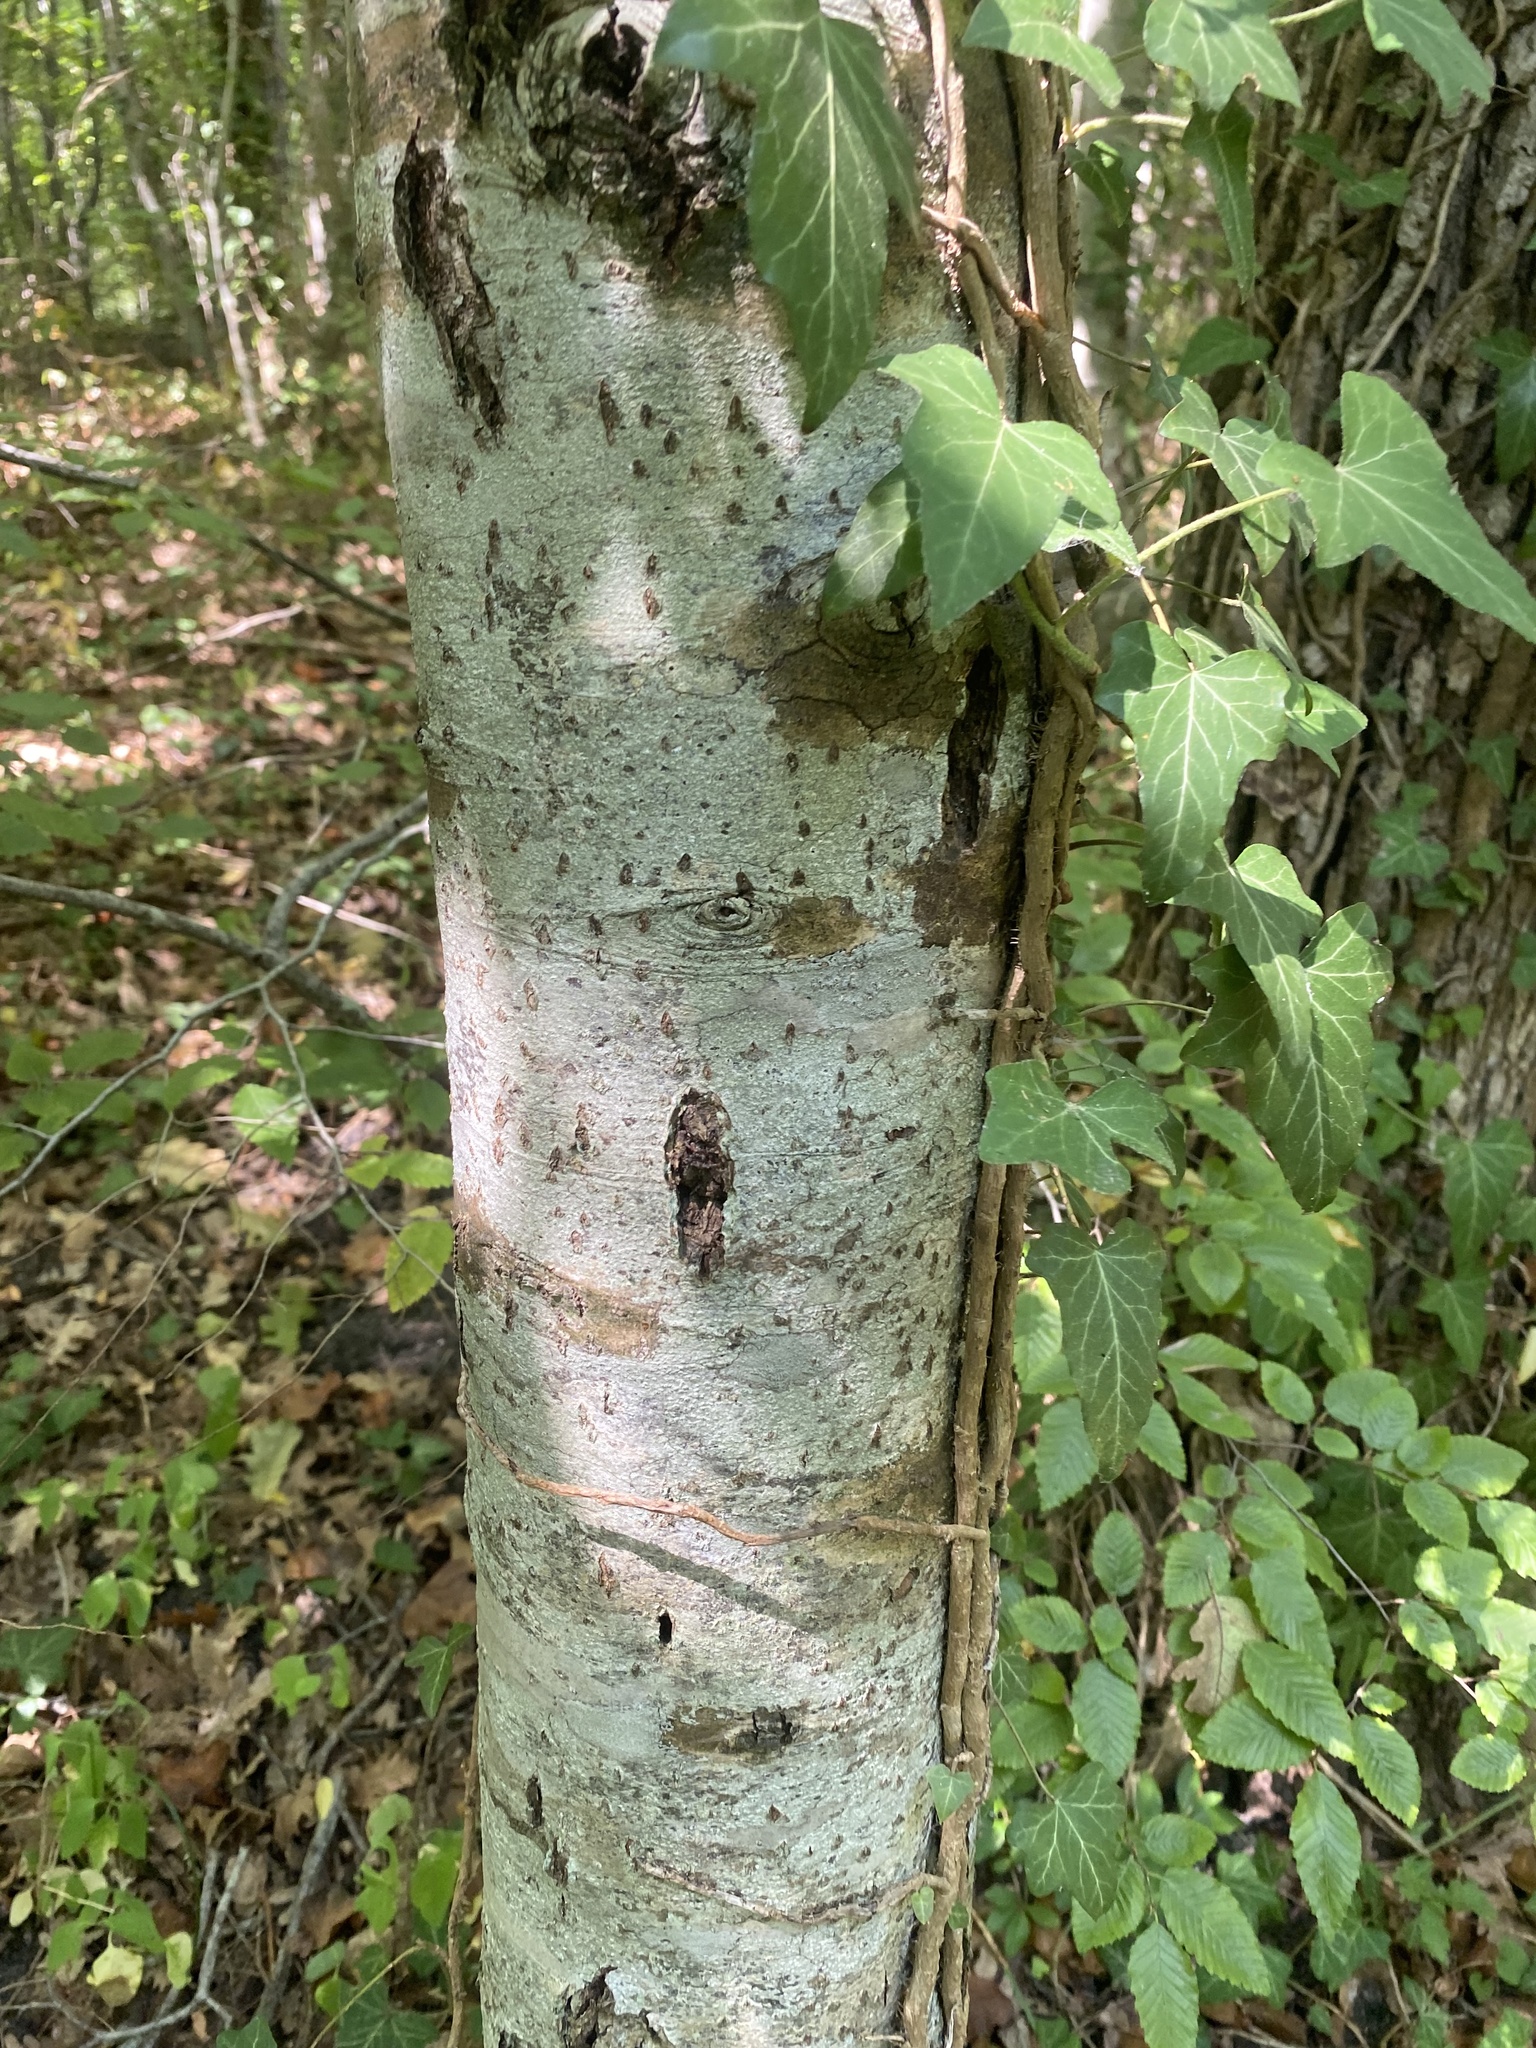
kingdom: Plantae
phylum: Tracheophyta
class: Magnoliopsida
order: Rosales
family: Rosaceae
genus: Torminalis
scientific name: Torminalis glaberrima
